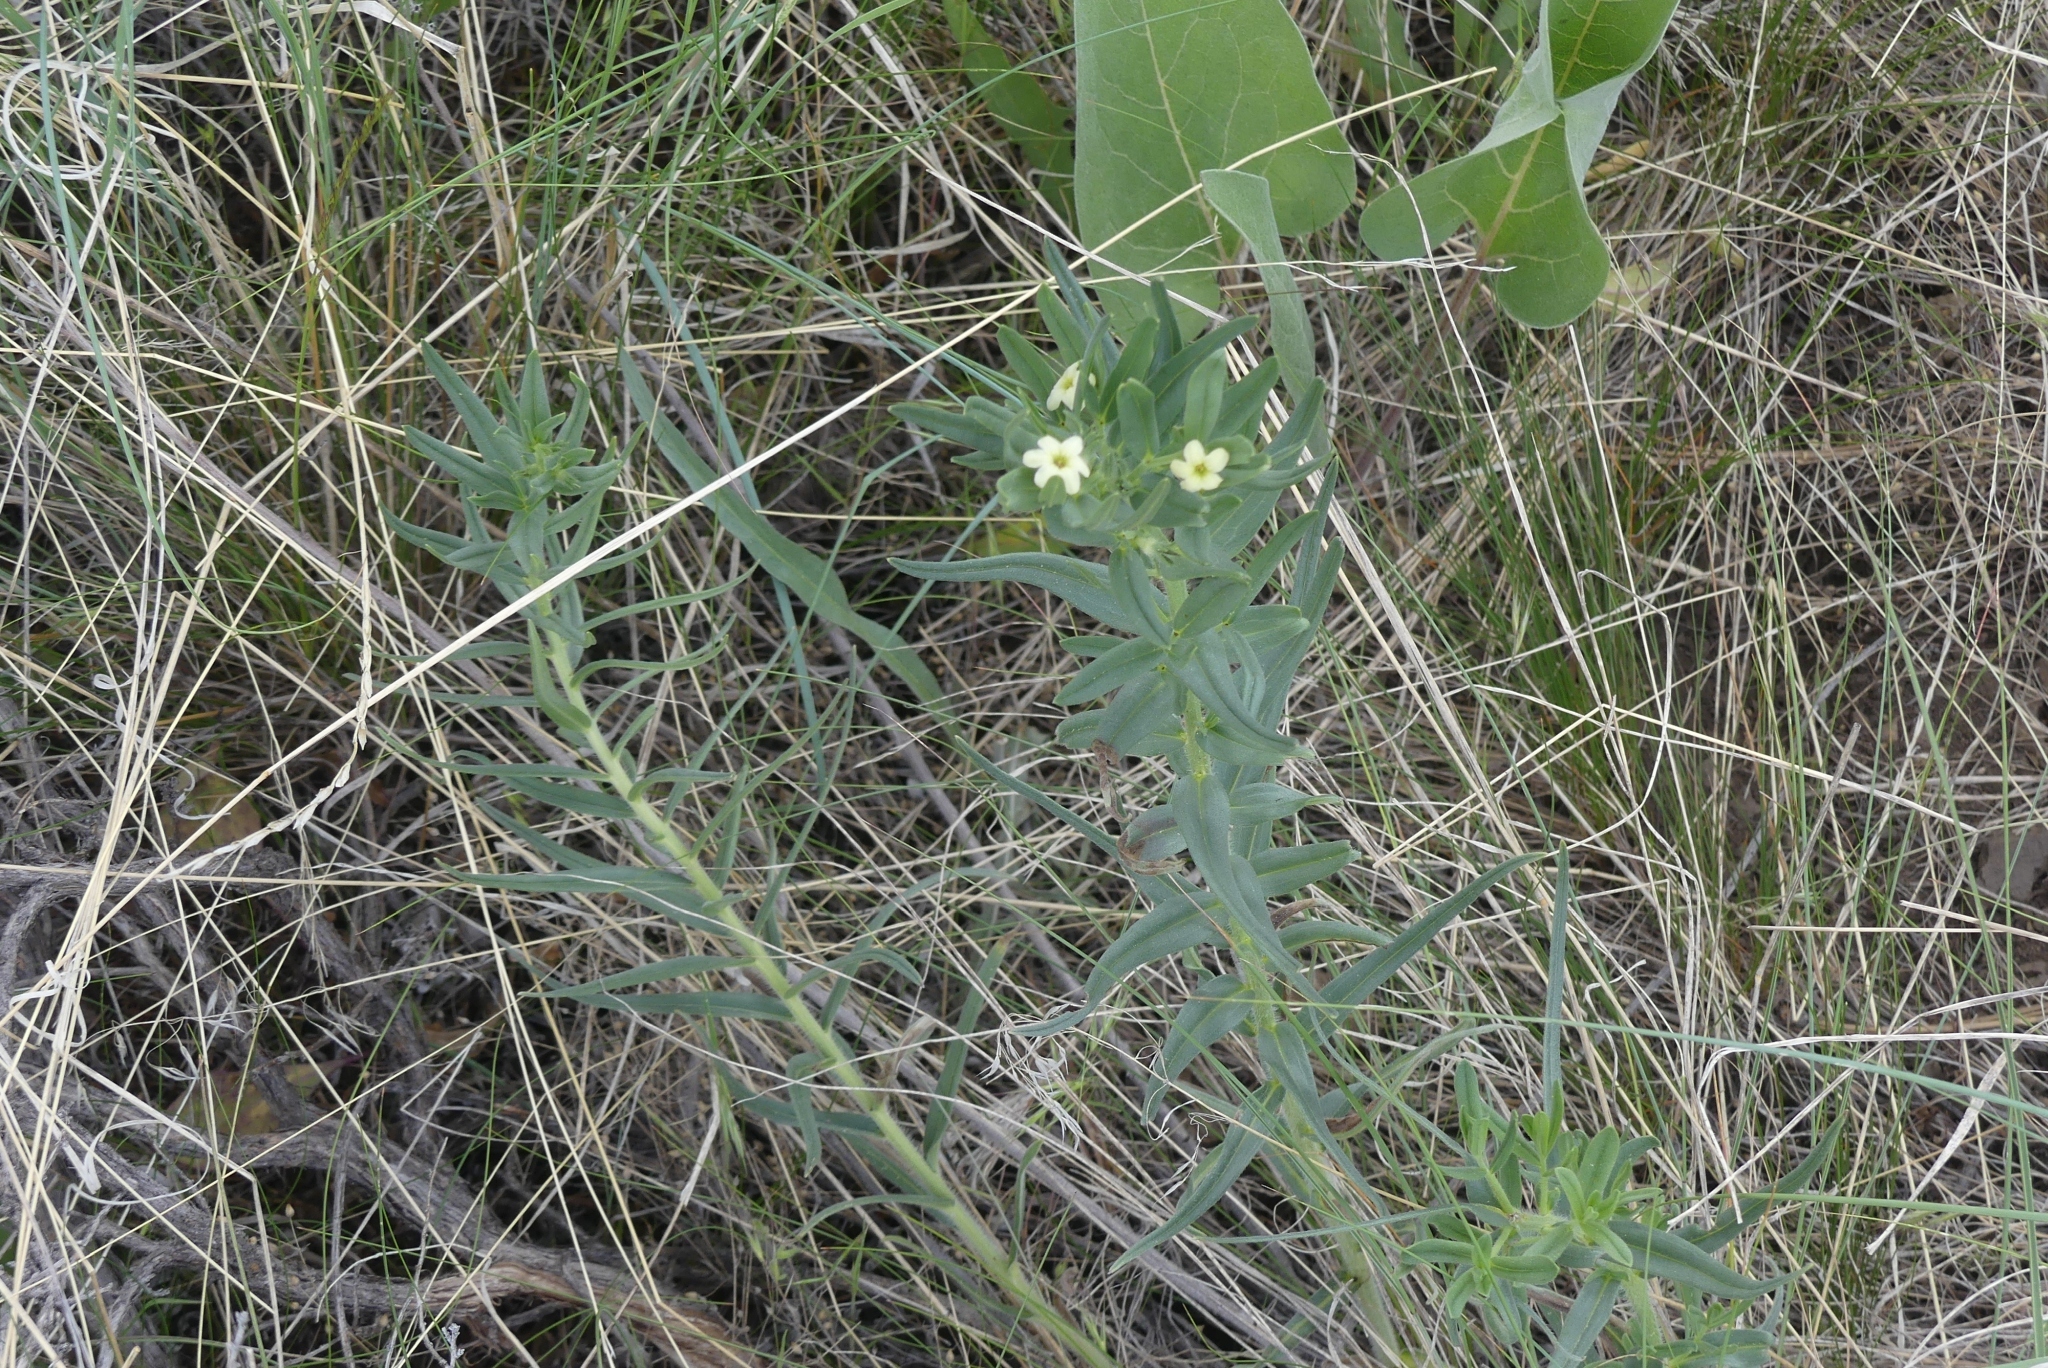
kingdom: Plantae
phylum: Tracheophyta
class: Magnoliopsida
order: Boraginales
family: Boraginaceae
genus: Lithospermum
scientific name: Lithospermum ruderale
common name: Western gromwell
